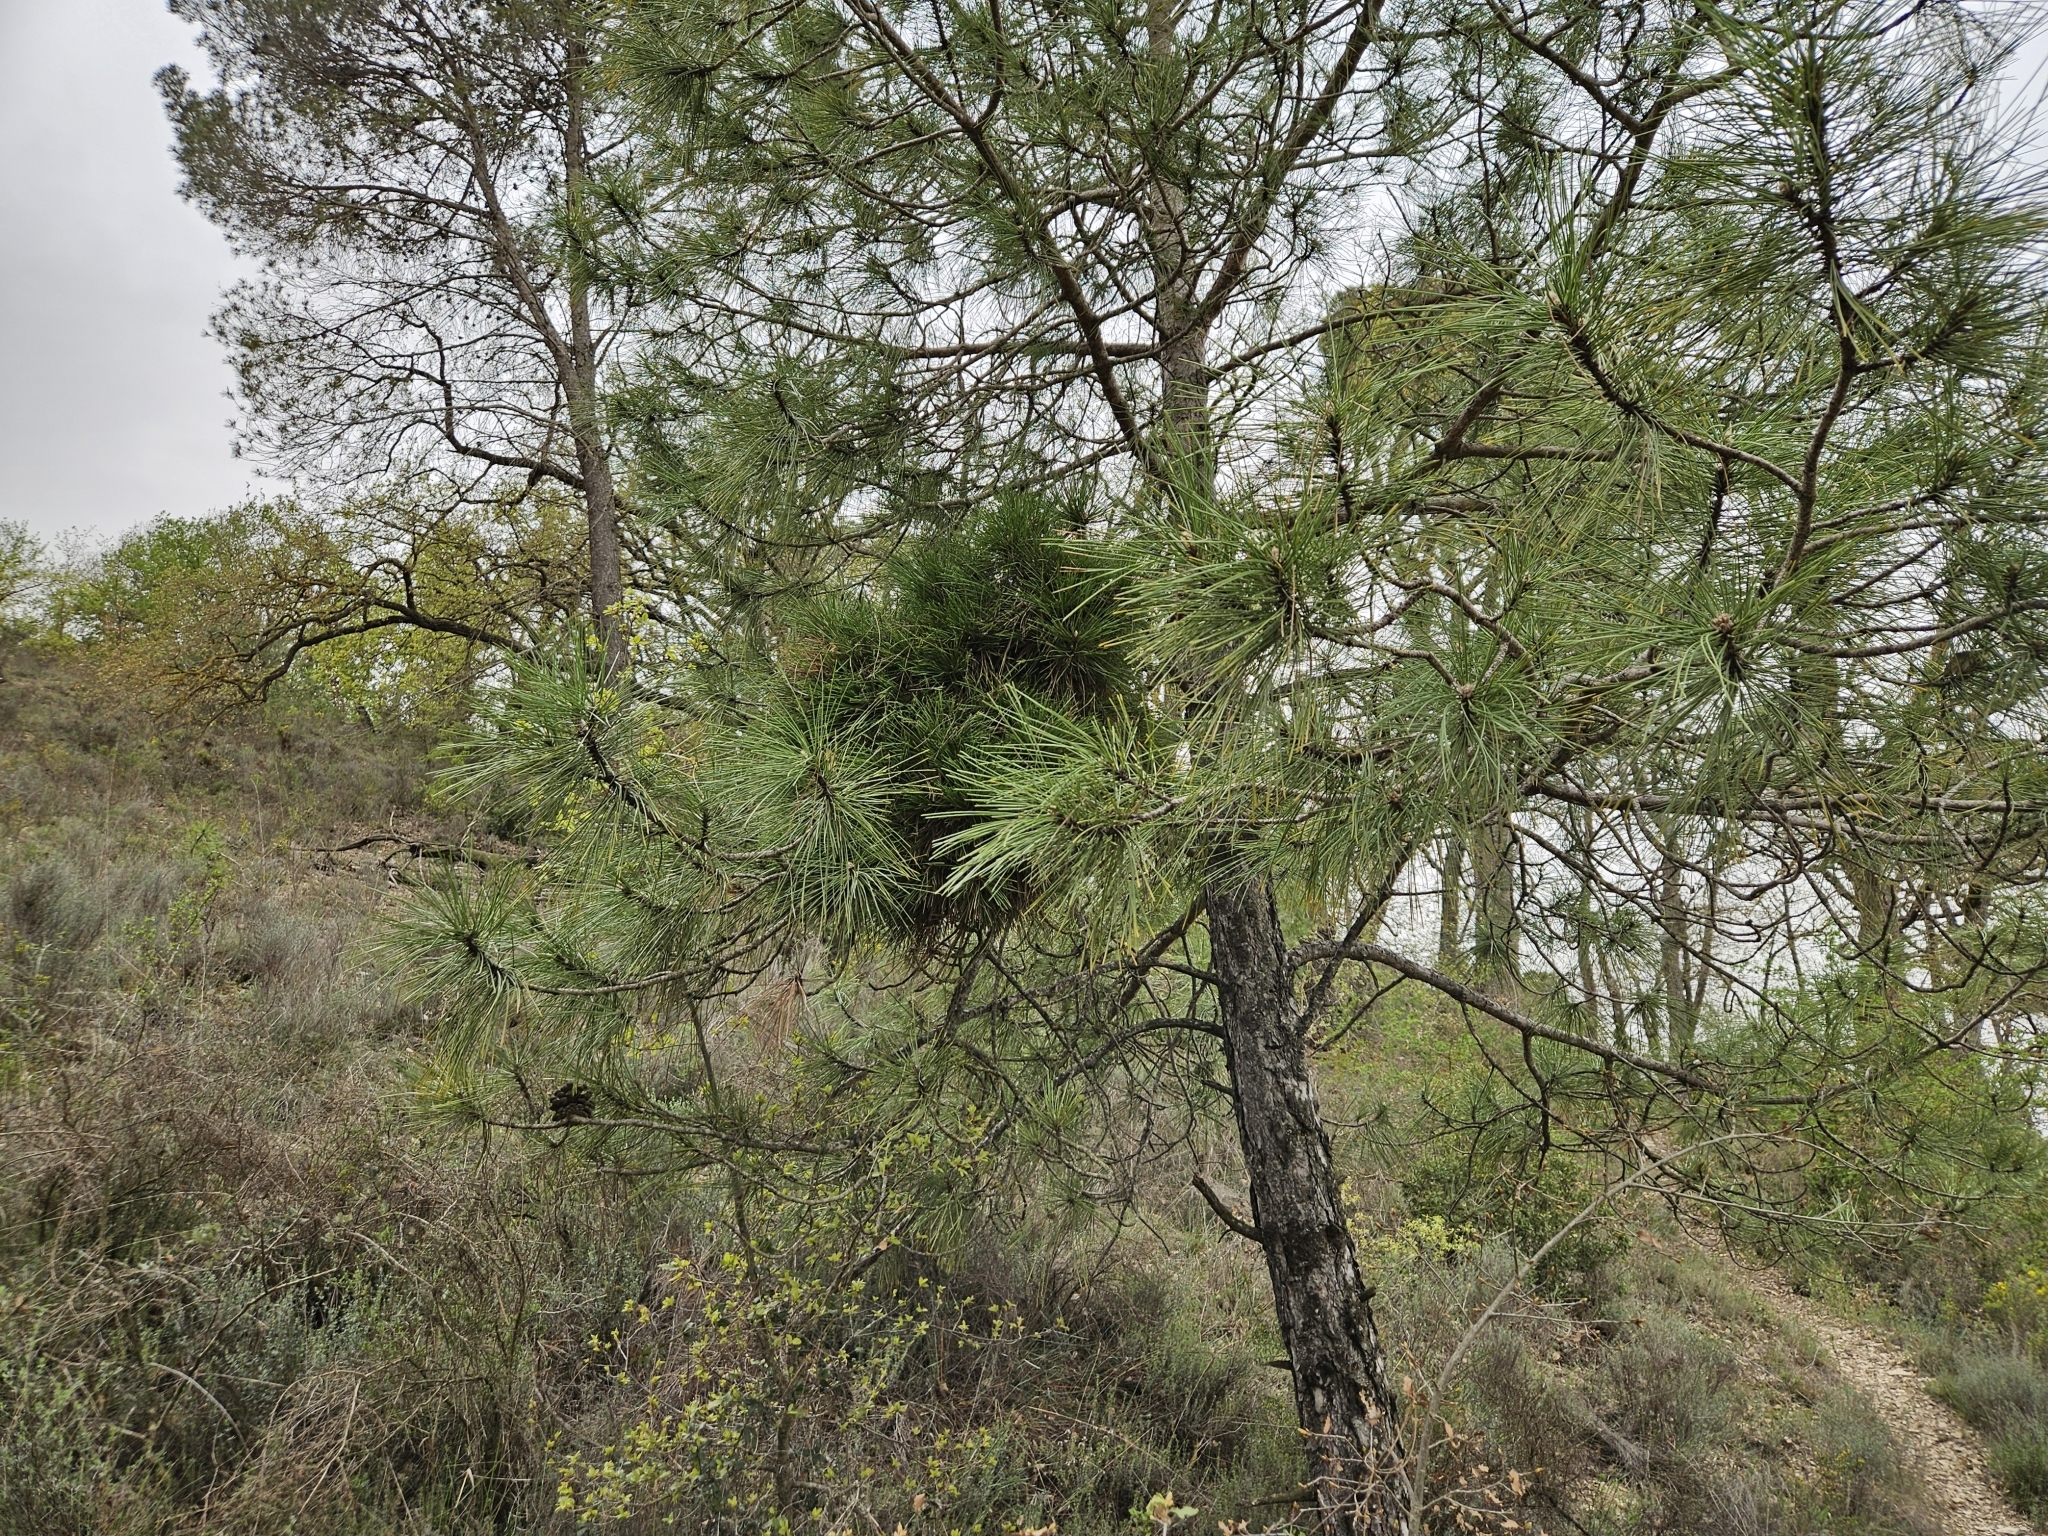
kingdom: Bacteria
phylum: Firmicutes
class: Bacilli
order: Acholeplasmatales
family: Acholeplasmataceae
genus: Phytoplasma
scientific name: Phytoplasma pini
